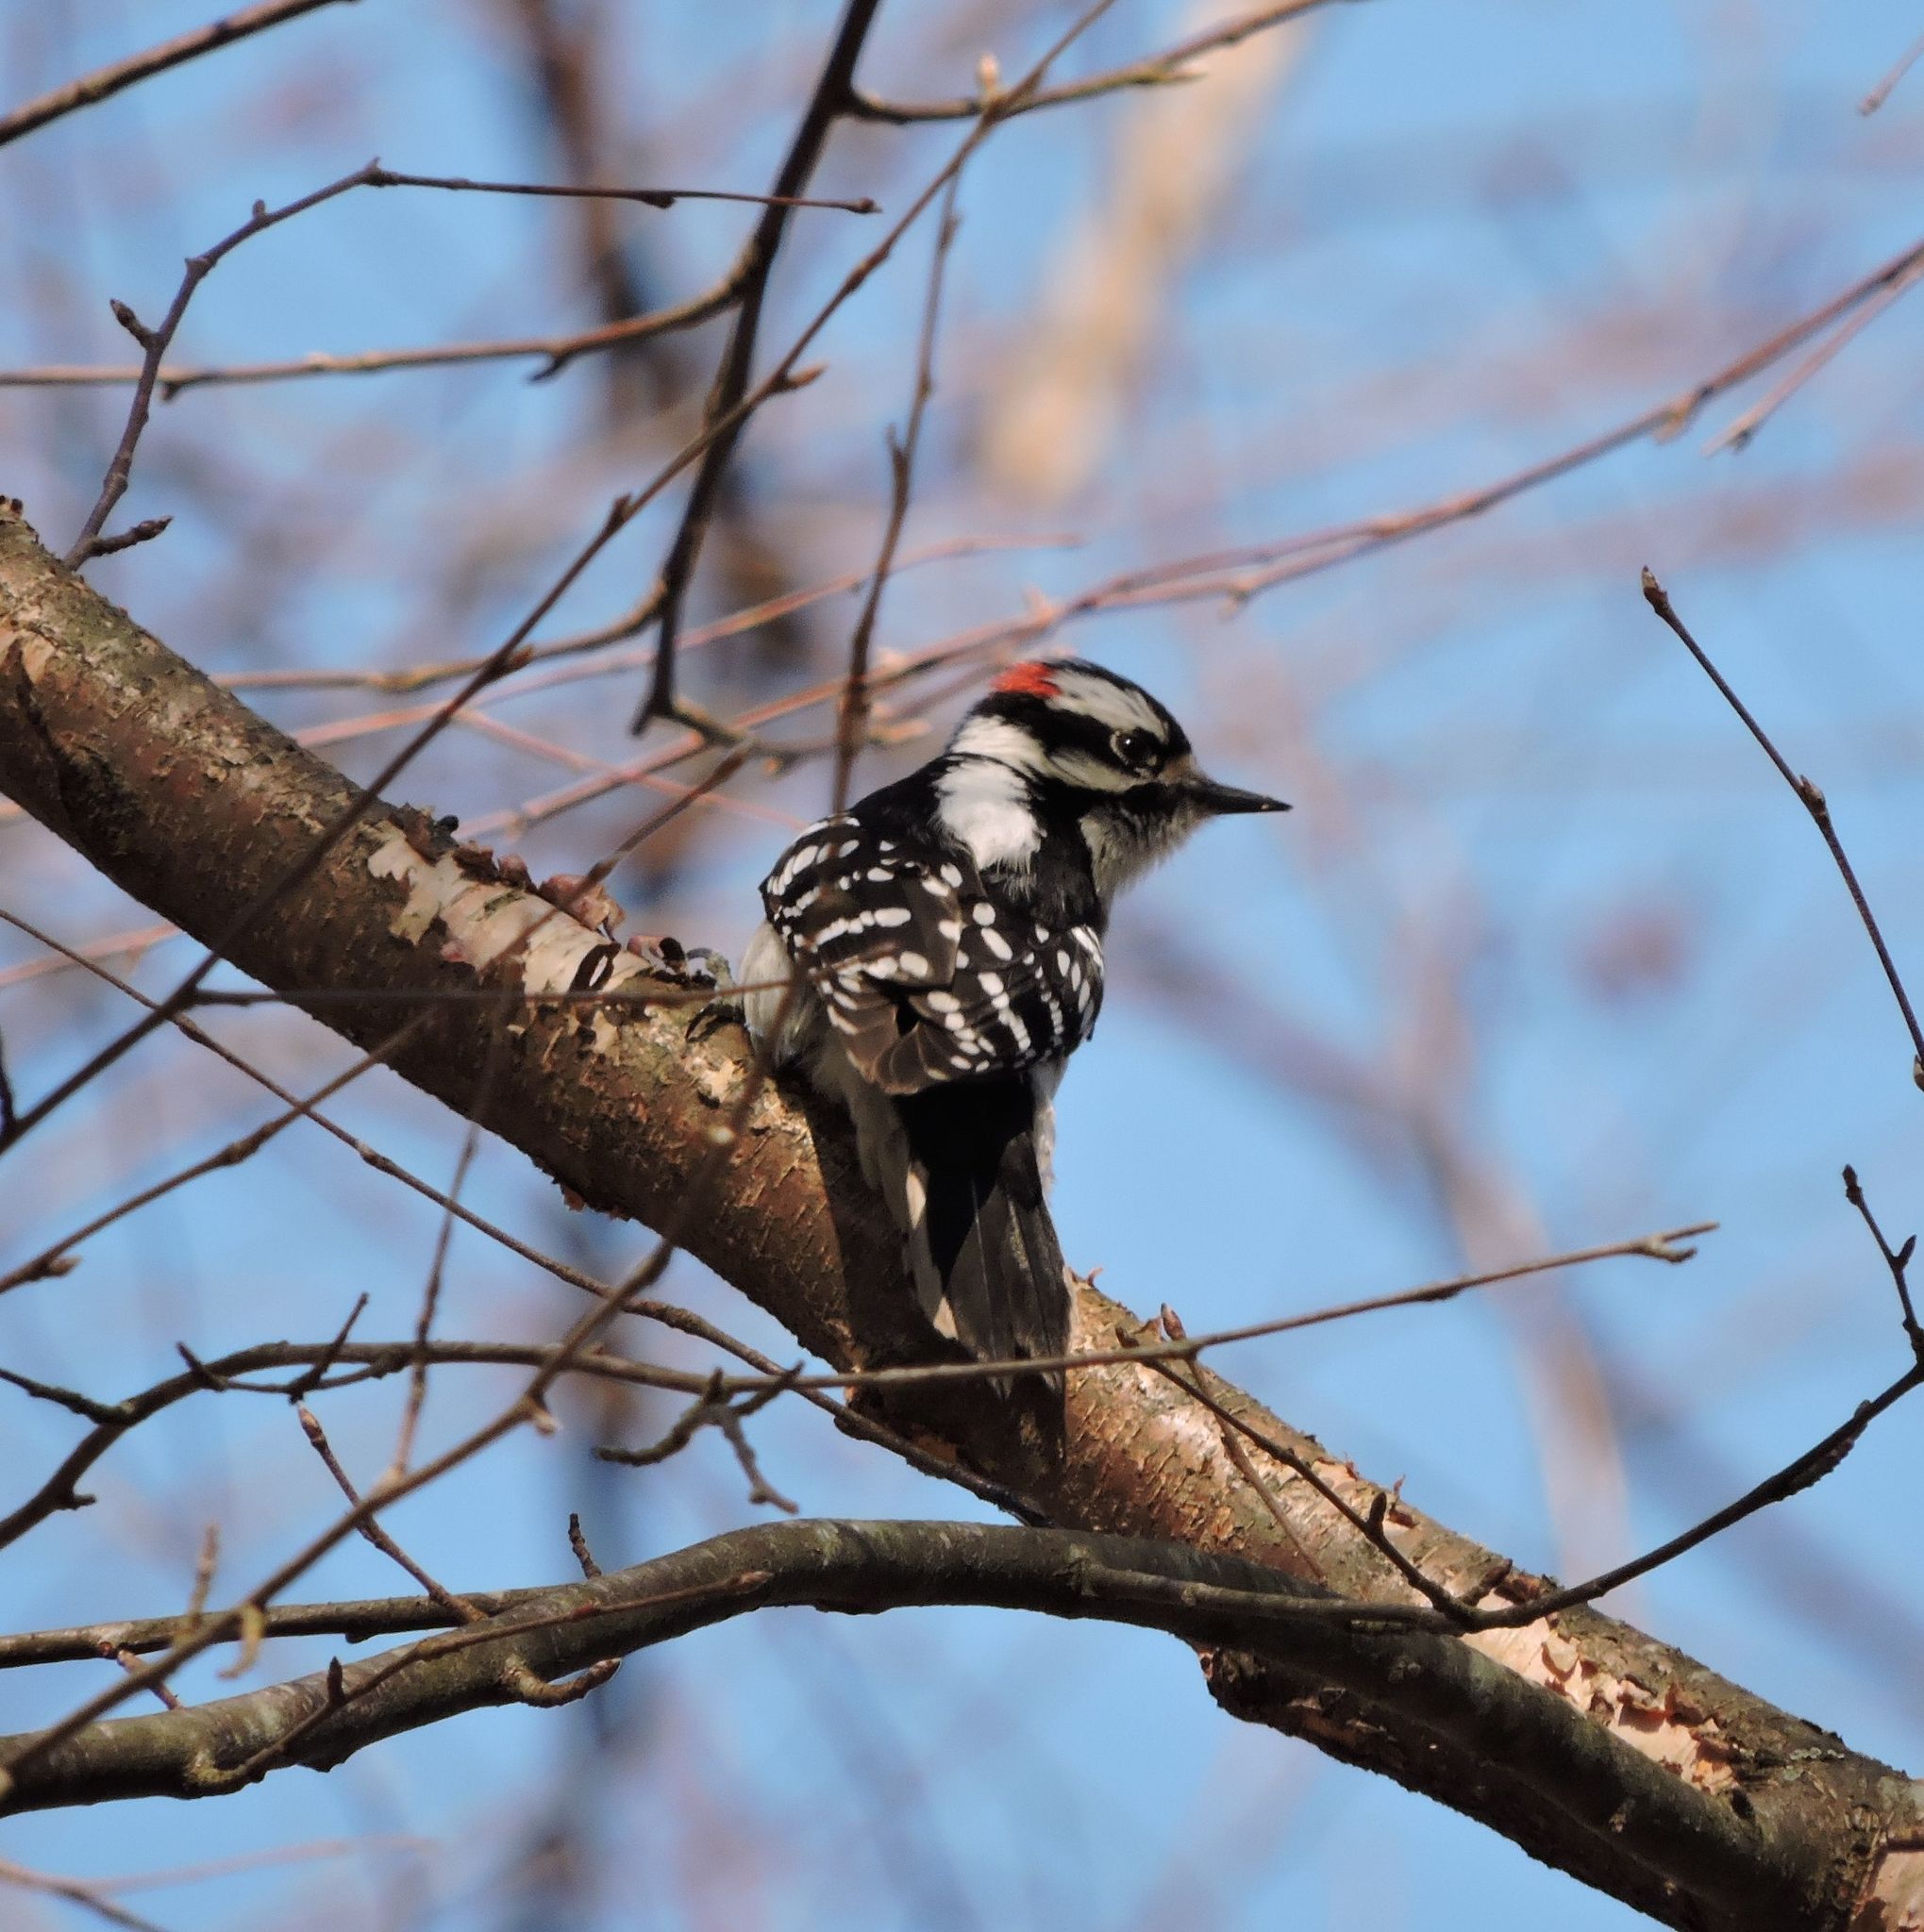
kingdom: Animalia
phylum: Chordata
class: Aves
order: Piciformes
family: Picidae
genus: Dryobates
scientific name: Dryobates pubescens
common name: Downy woodpecker
